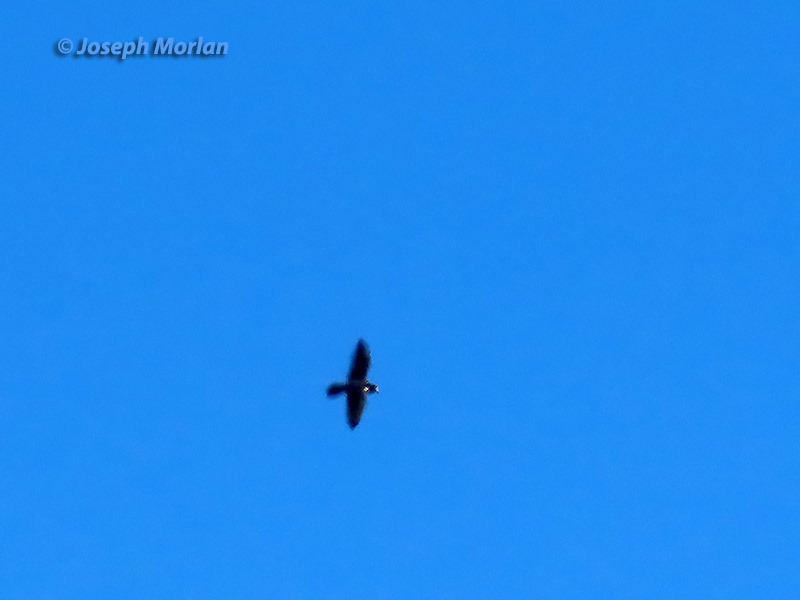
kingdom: Animalia
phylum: Chordata
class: Aves
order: Falconiformes
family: Falconidae
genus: Falco
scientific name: Falco peregrinus
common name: Peregrine falcon
